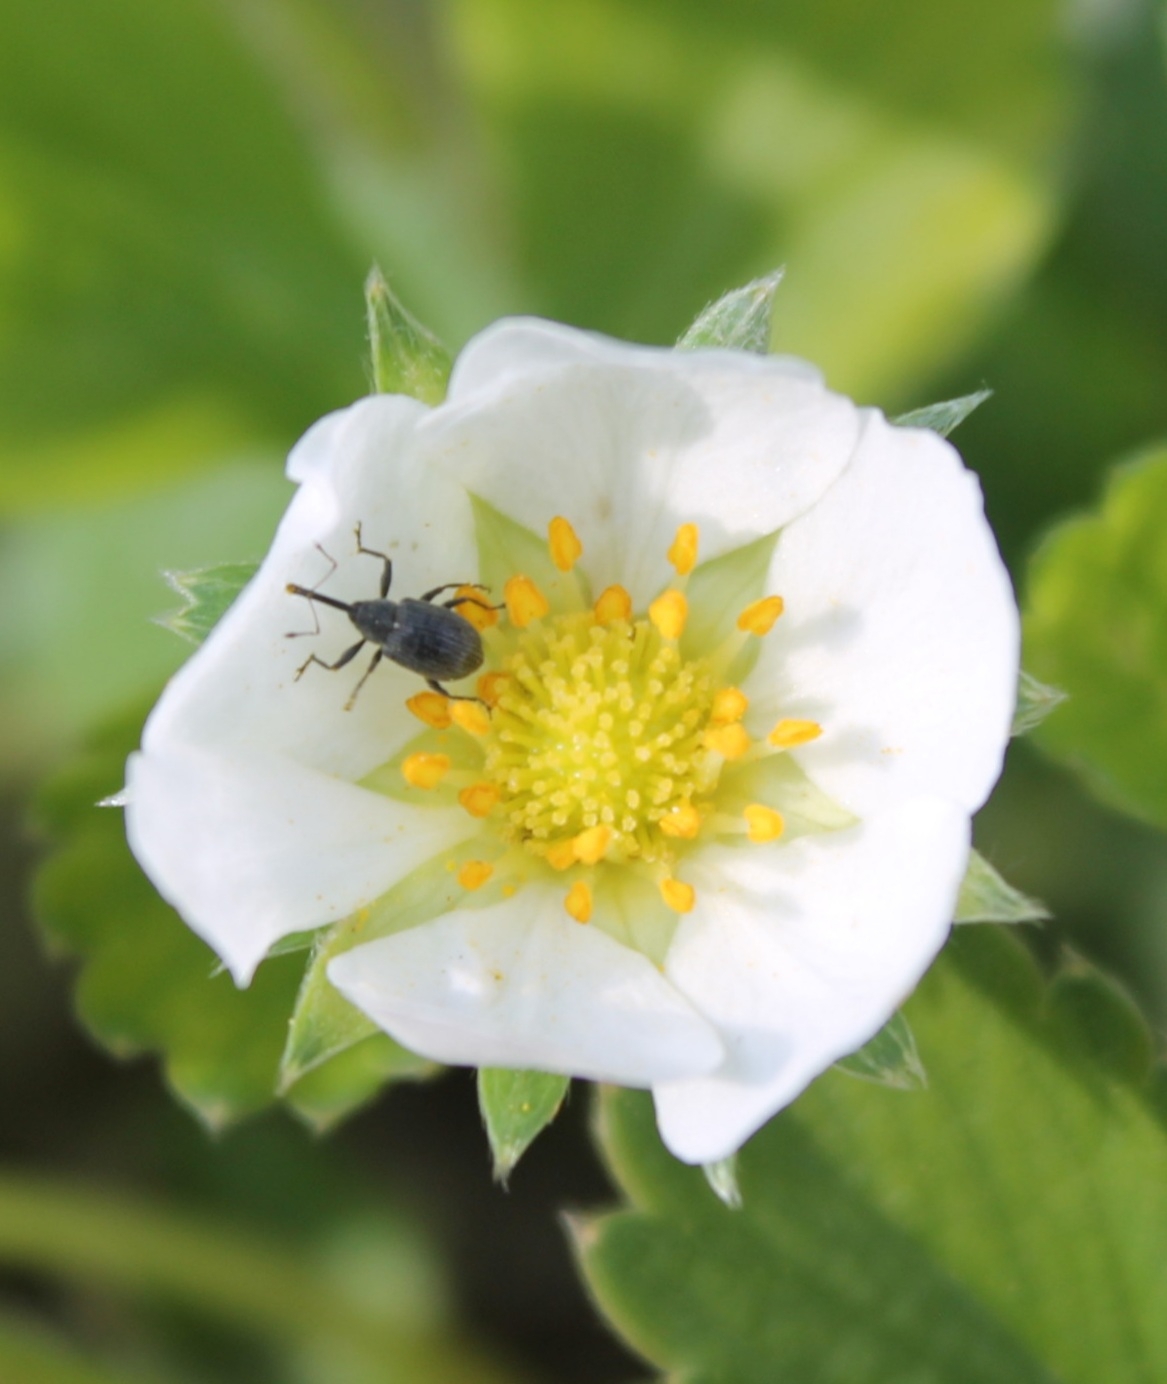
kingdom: Animalia
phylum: Arthropoda
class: Insecta
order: Coleoptera
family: Curculionidae
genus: Anthonomus
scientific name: Anthonomus rubi
